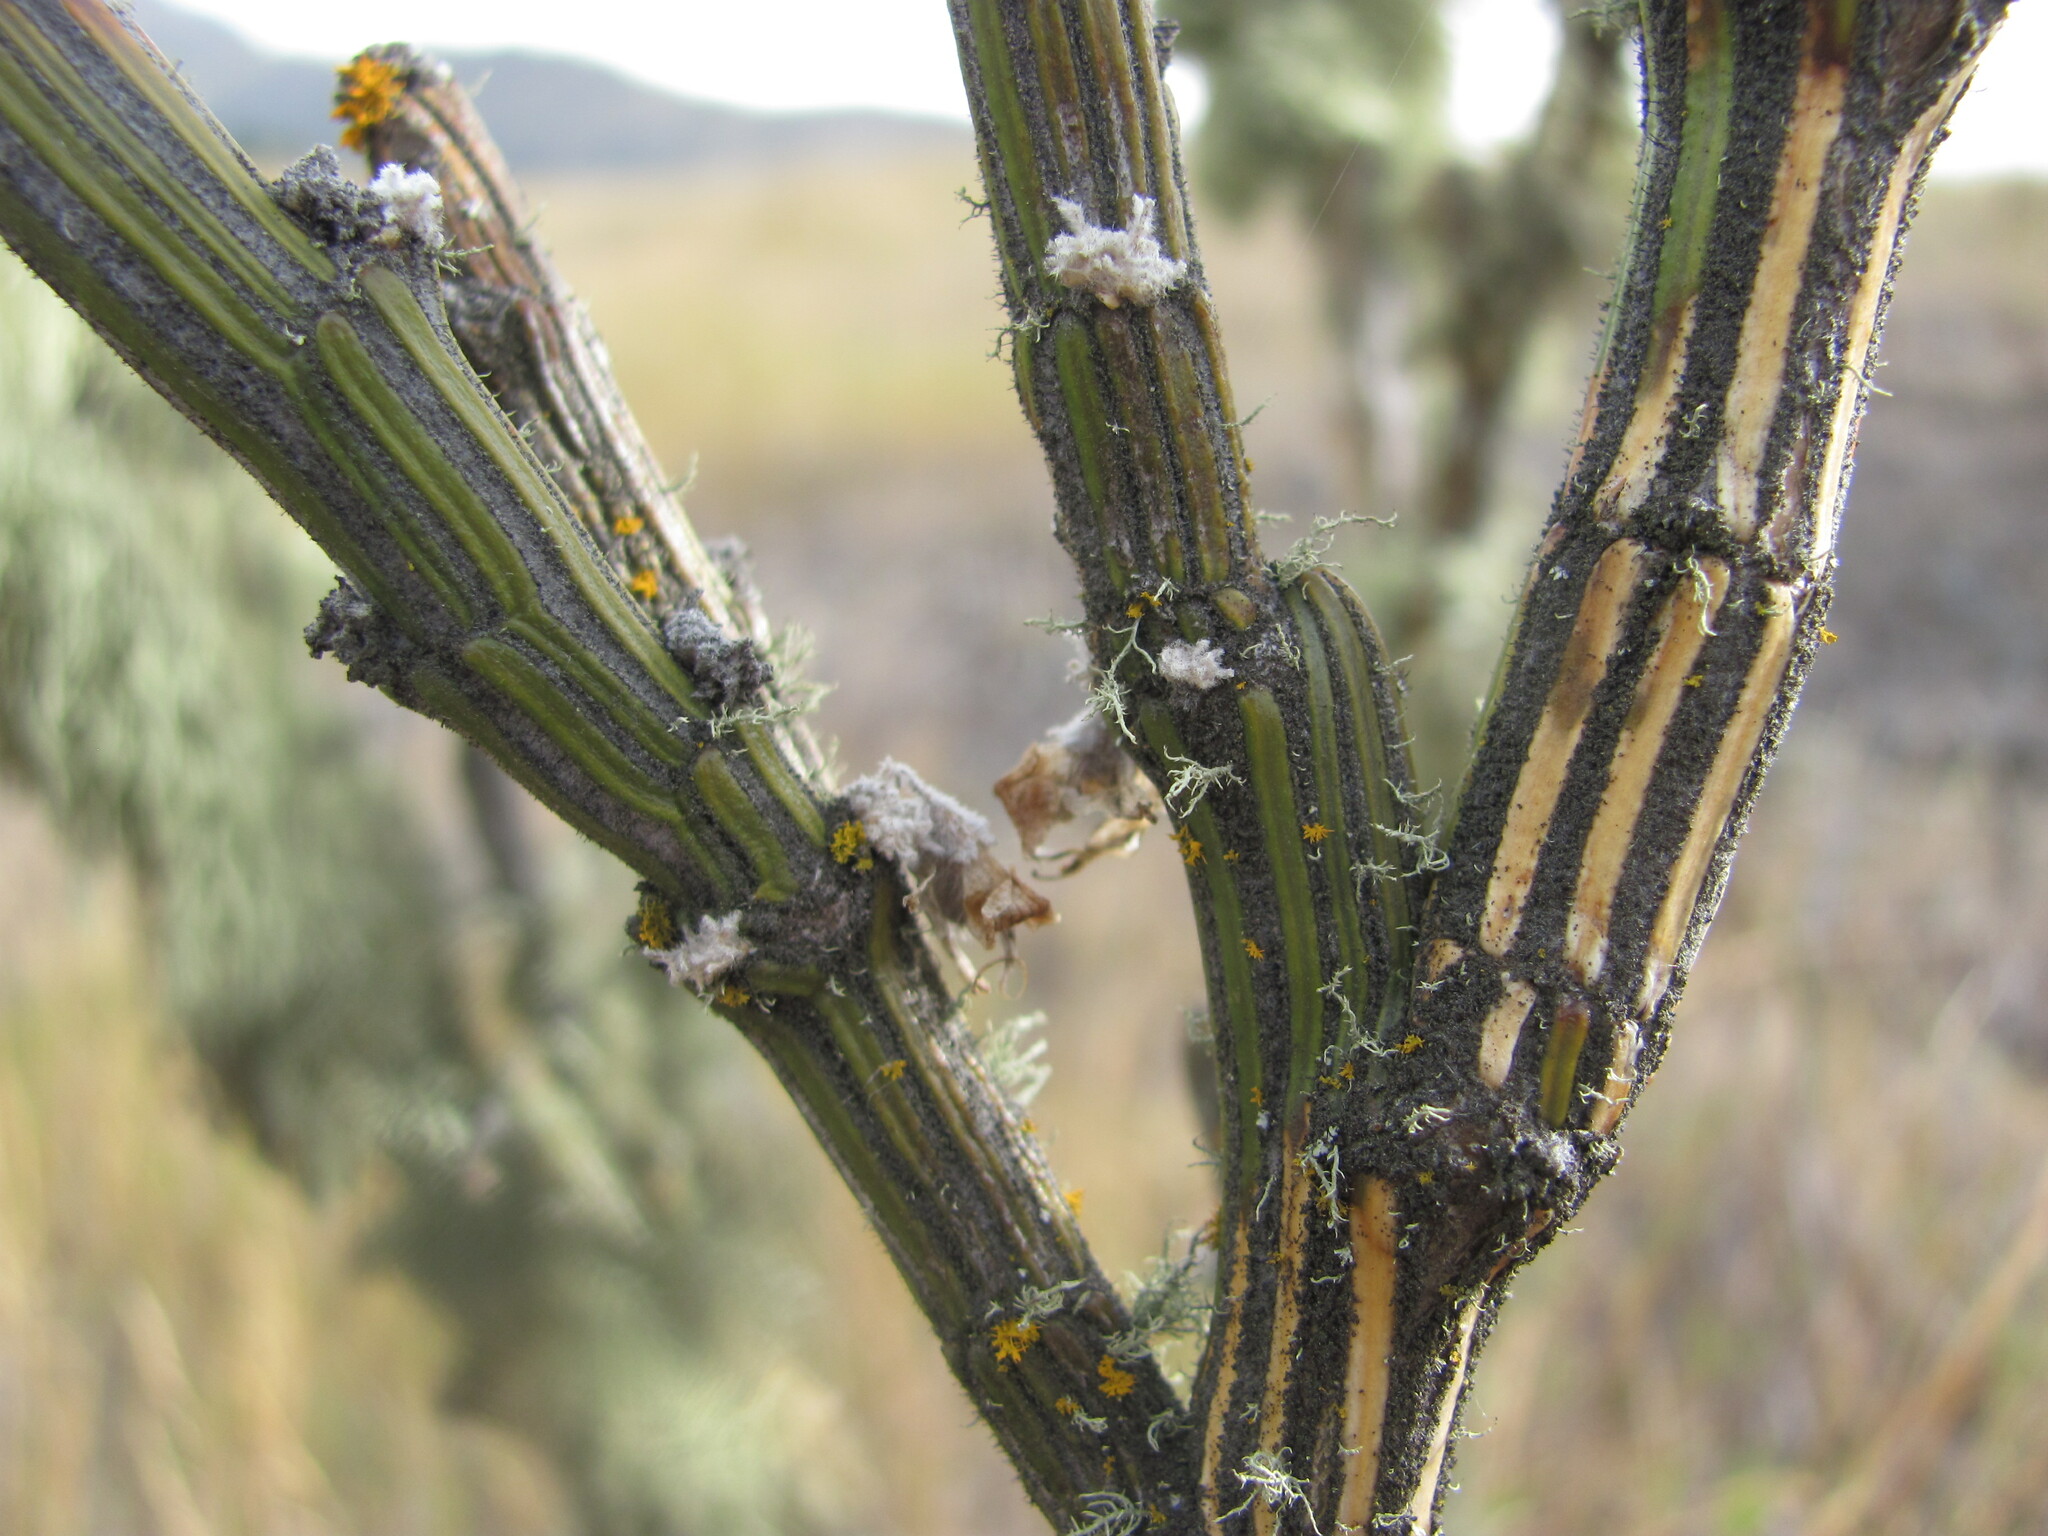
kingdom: Plantae
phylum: Tracheophyta
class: Magnoliopsida
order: Fabales
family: Fabaceae
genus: Carmichaelia
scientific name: Carmichaelia crassicaulis
